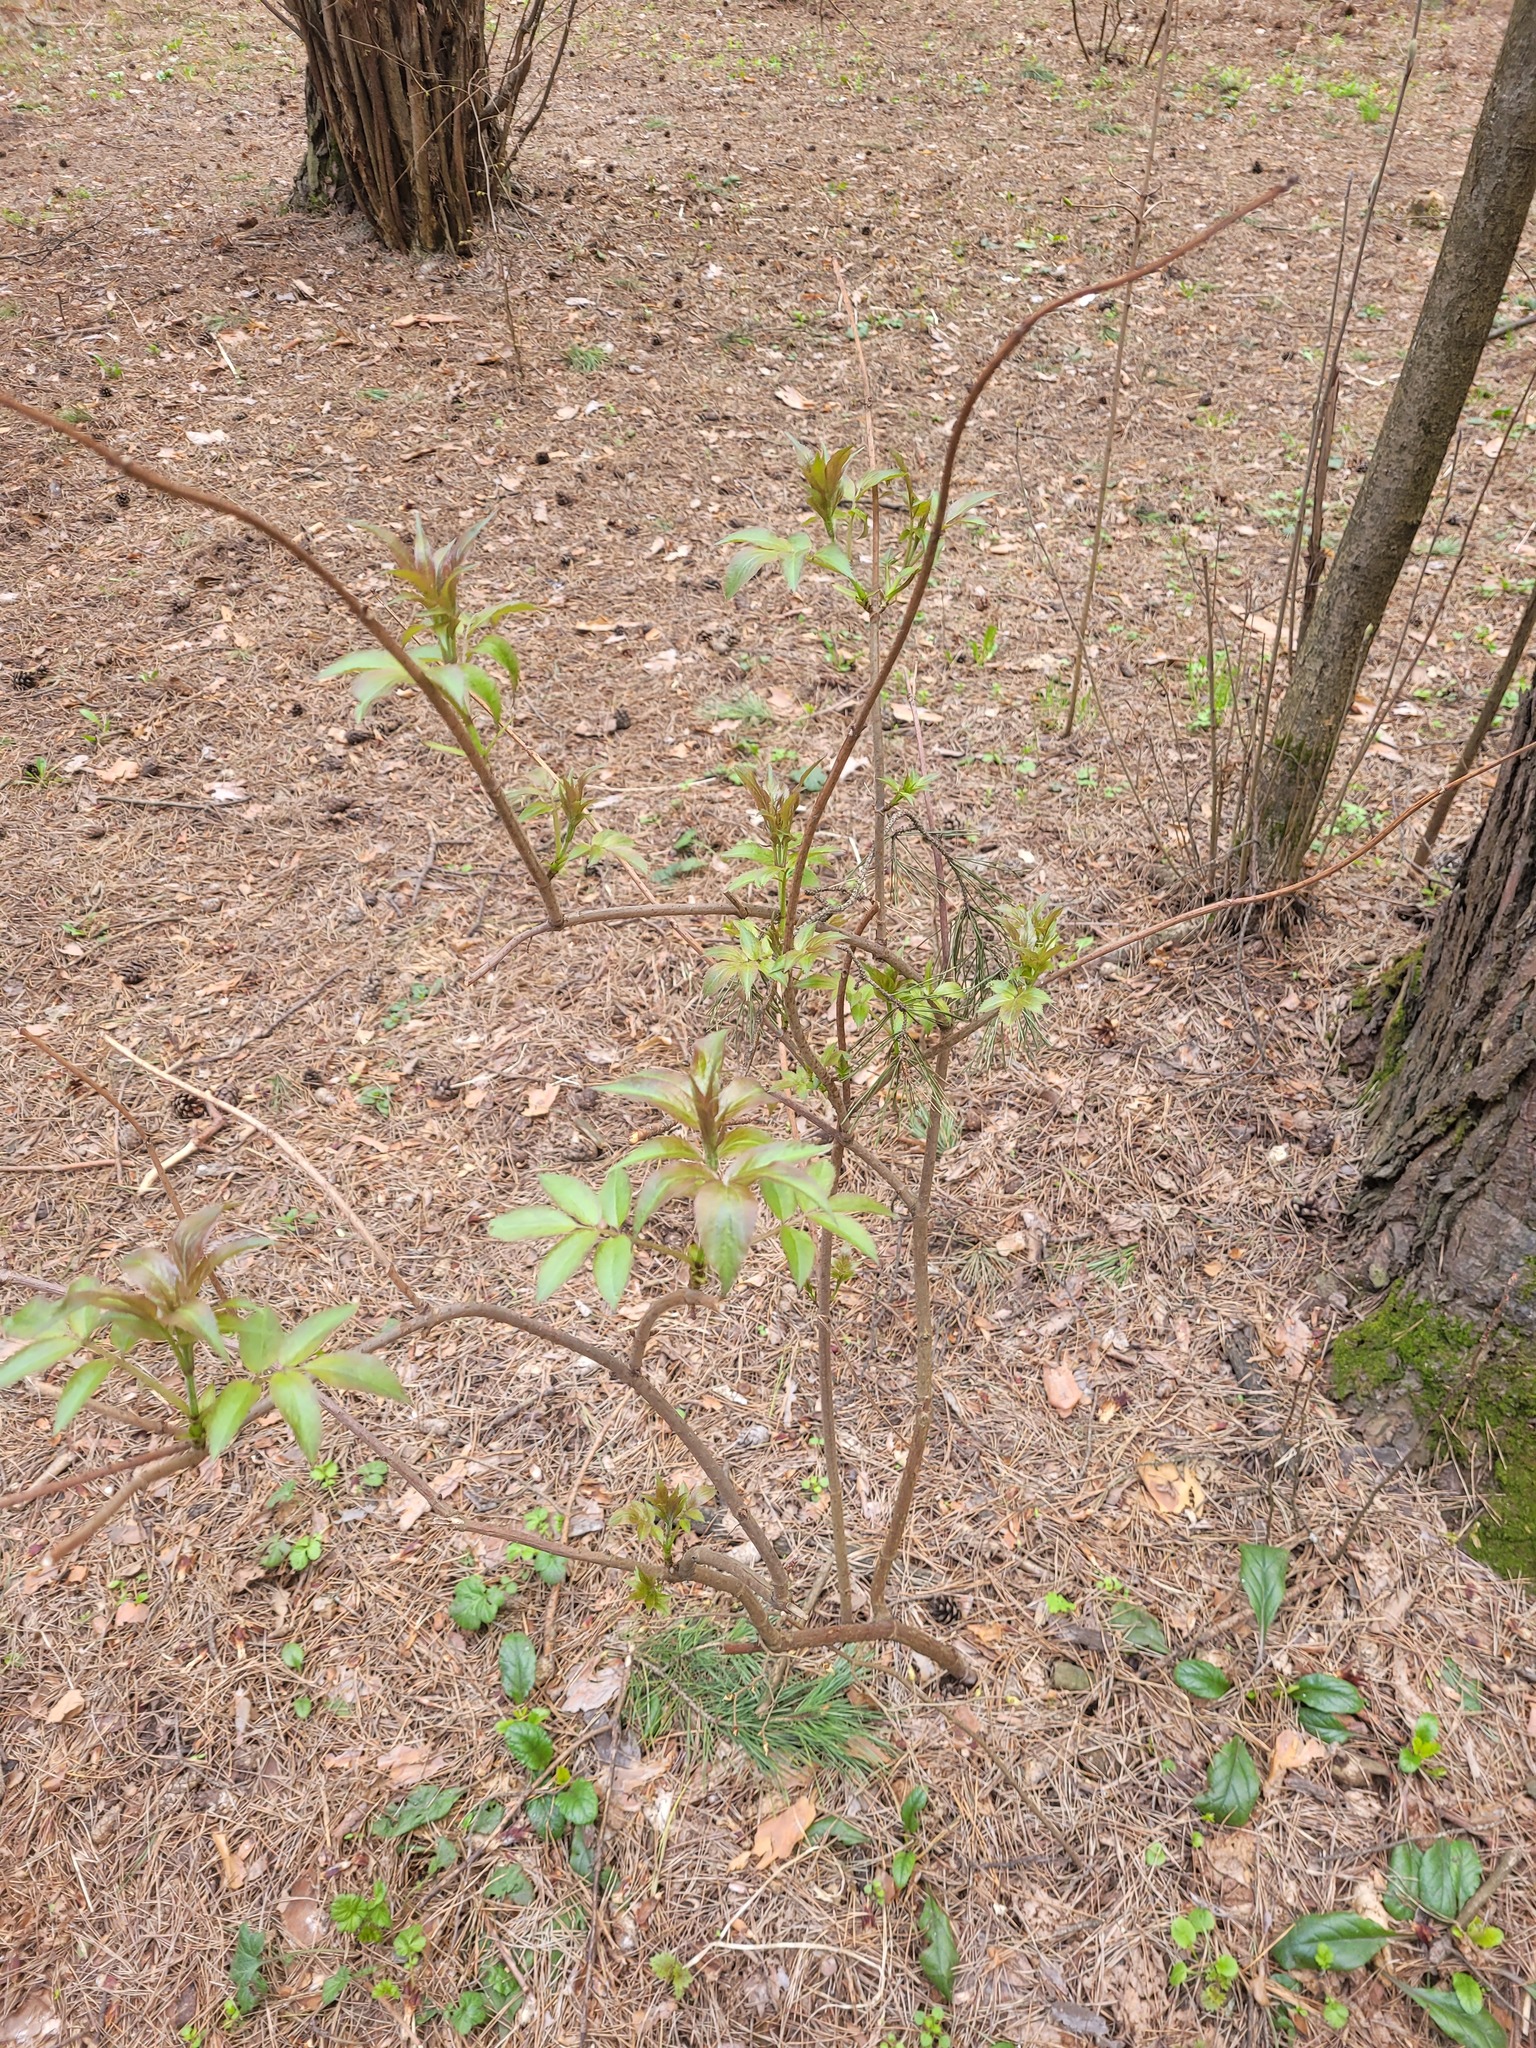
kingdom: Plantae
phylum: Tracheophyta
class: Magnoliopsida
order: Dipsacales
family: Viburnaceae
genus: Sambucus
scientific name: Sambucus racemosa
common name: Red-berried elder
